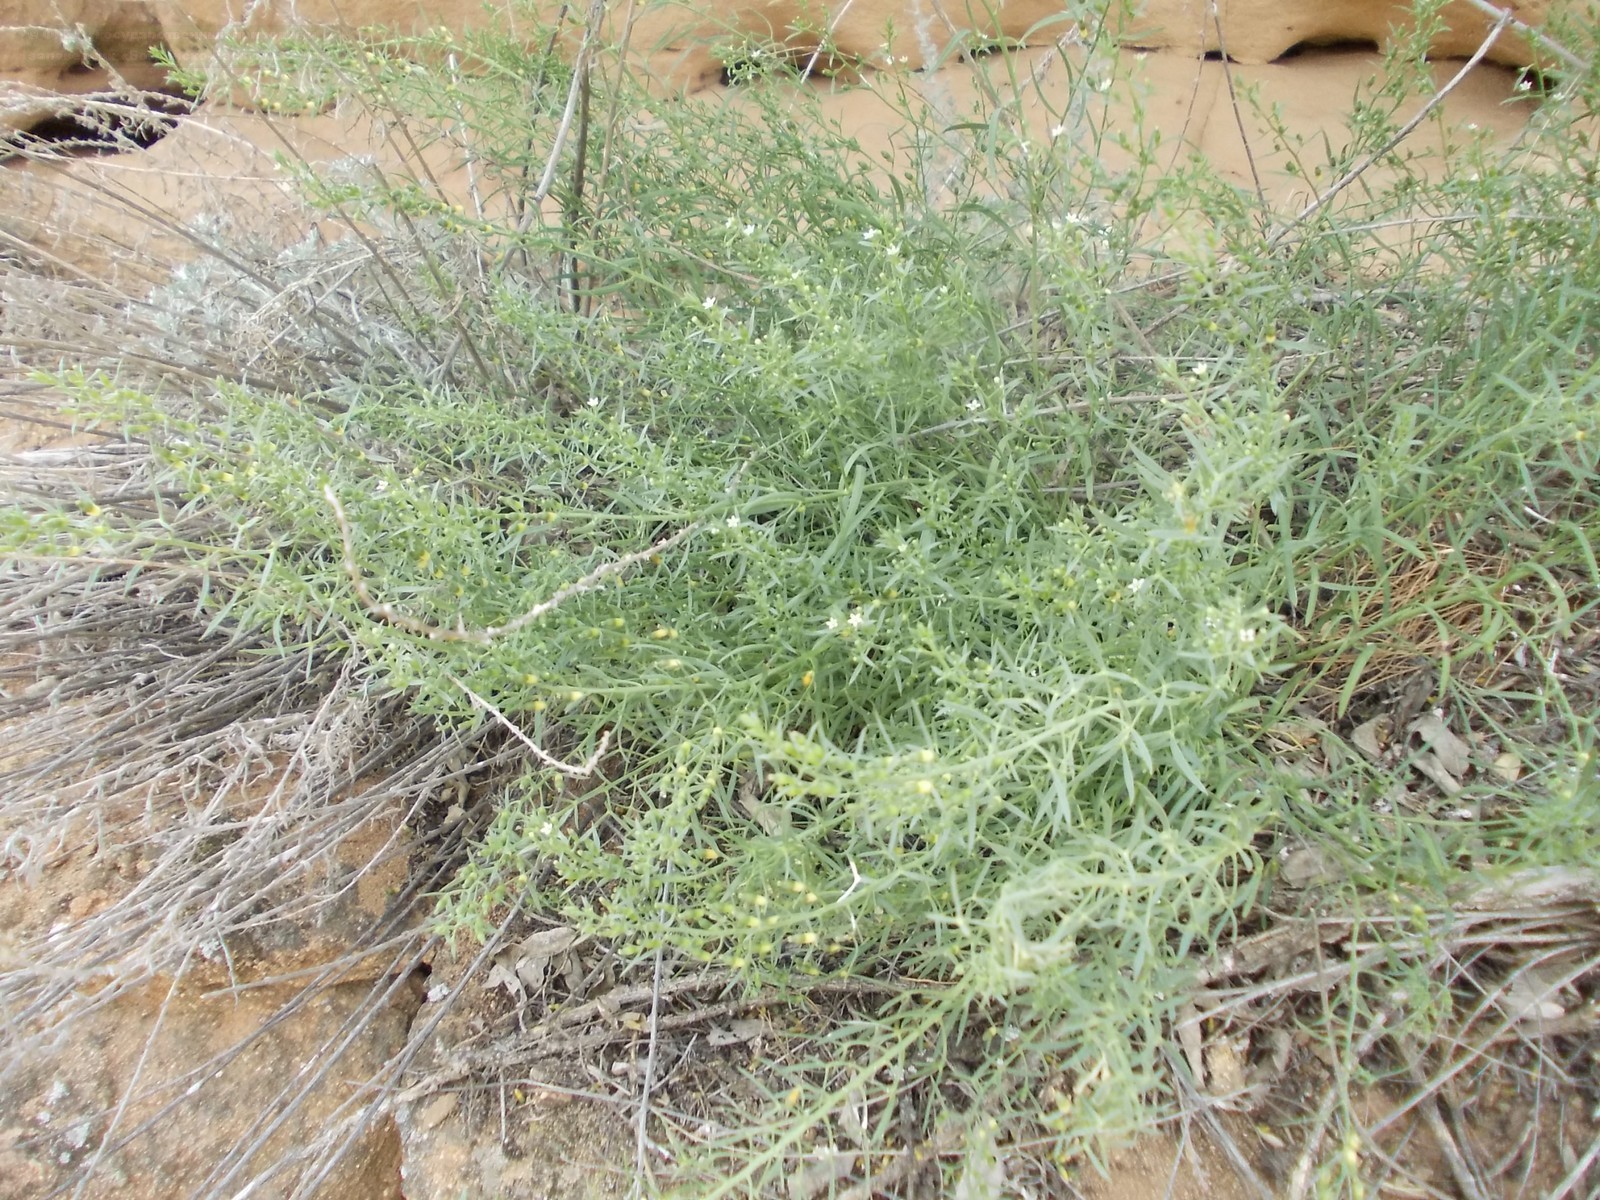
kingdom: Plantae
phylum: Tracheophyta
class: Magnoliopsida
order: Santalales
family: Thesiaceae
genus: Thesium
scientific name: Thesium ramosum
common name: Field thesium
